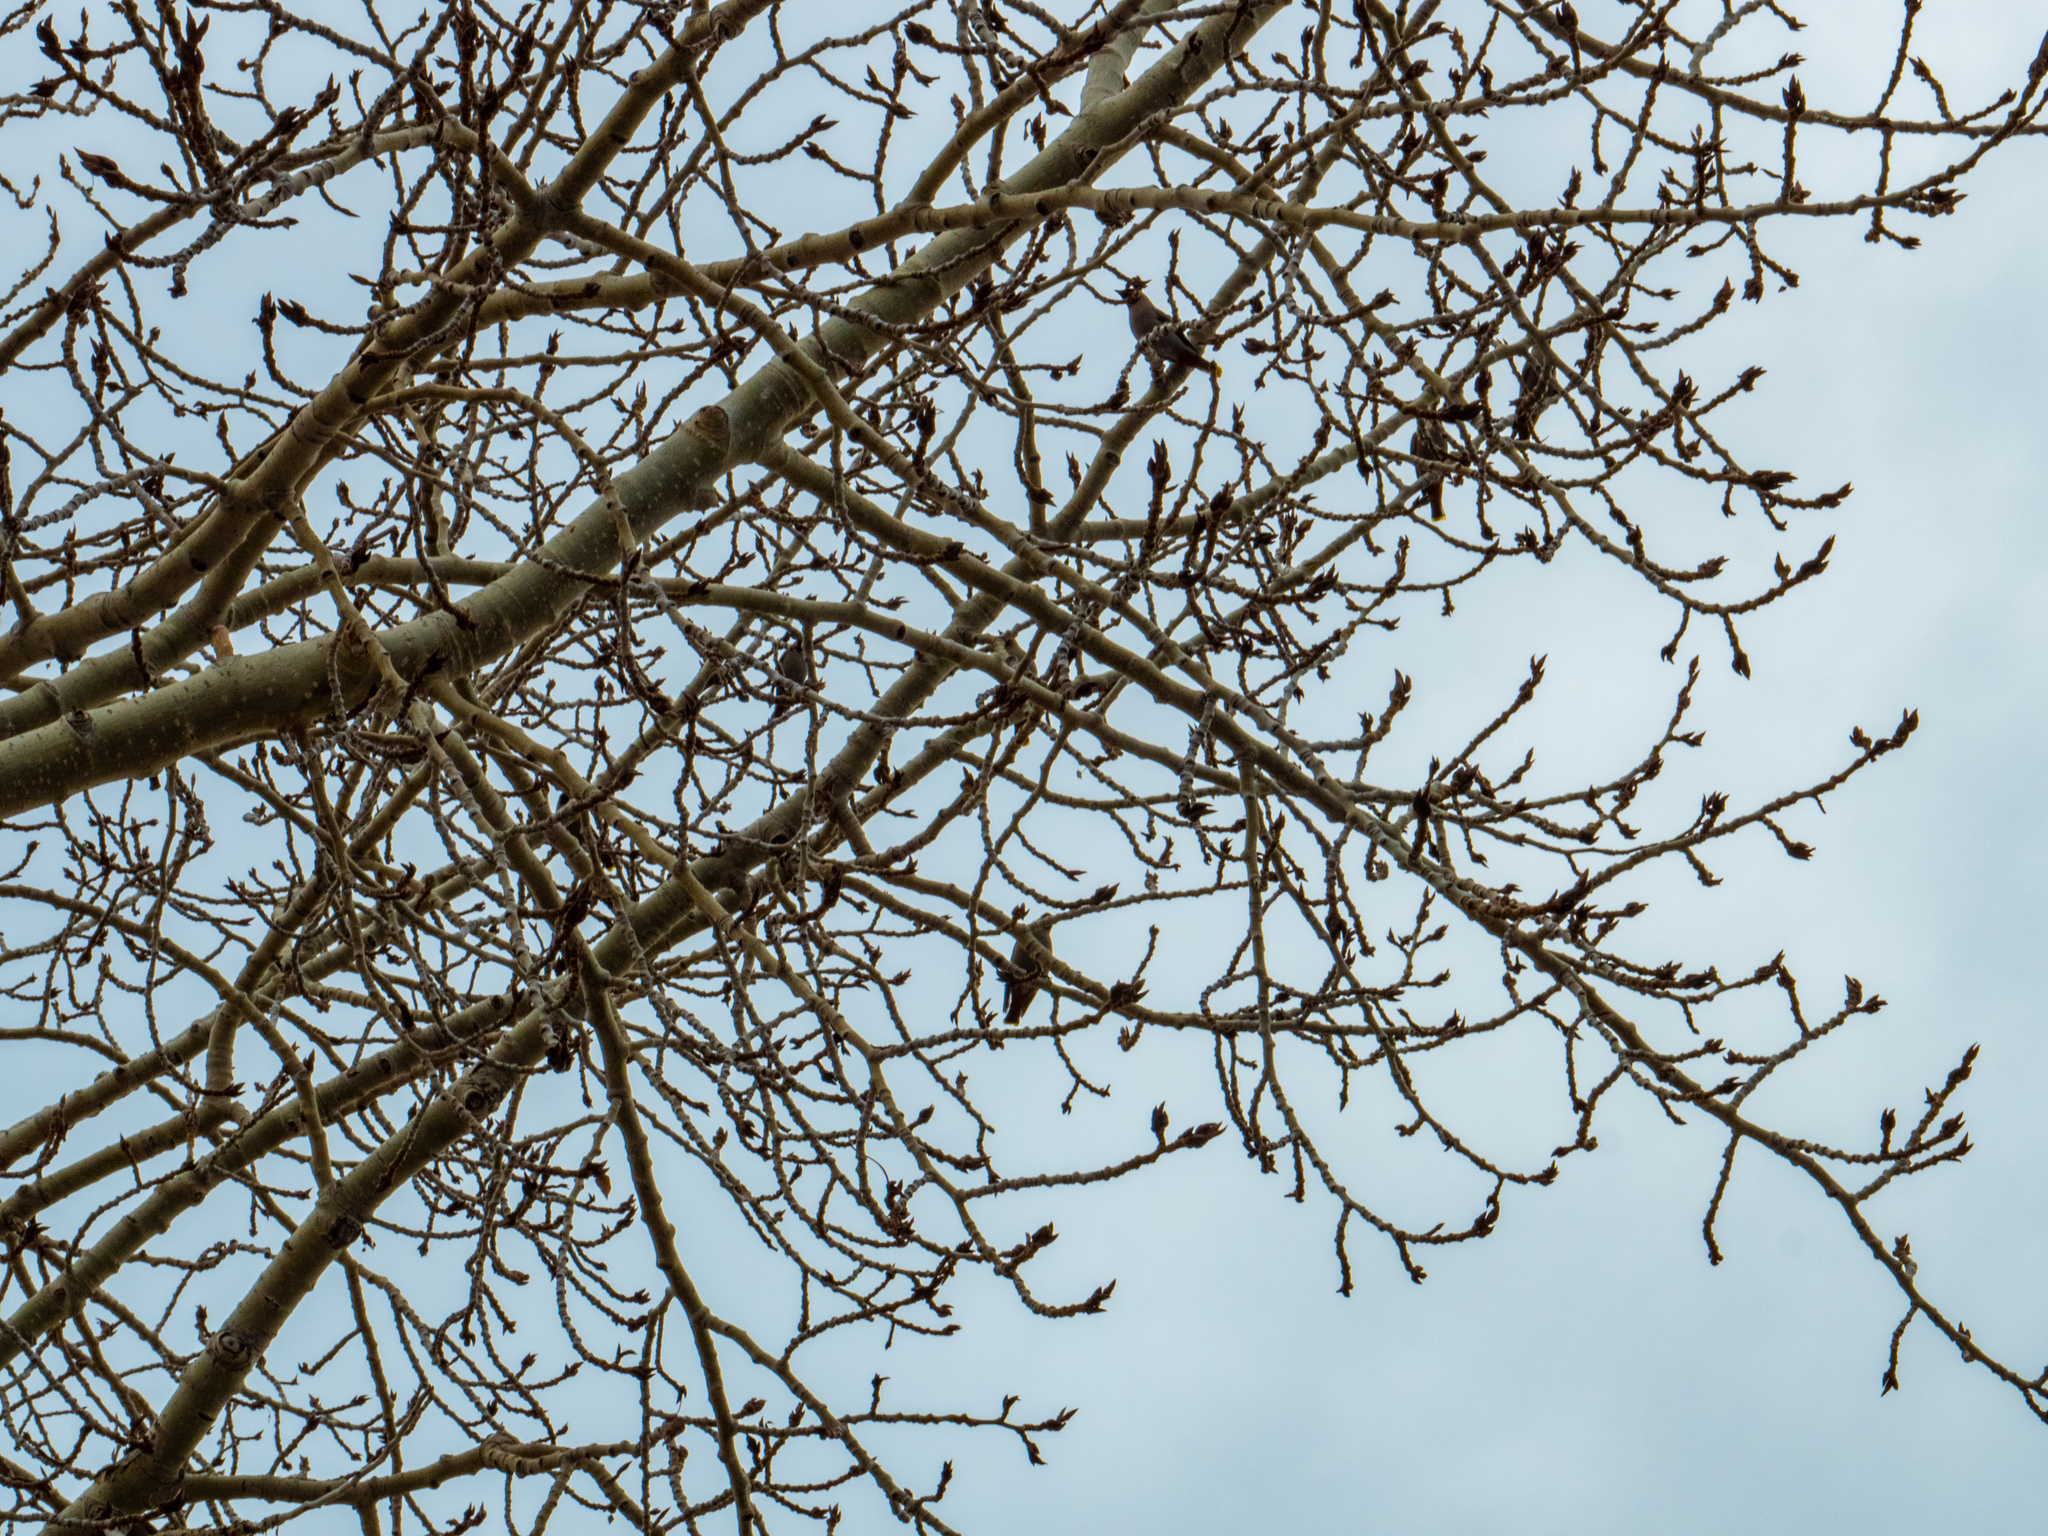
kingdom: Animalia
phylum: Chordata
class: Aves
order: Passeriformes
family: Bombycillidae
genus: Bombycilla
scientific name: Bombycilla garrulus
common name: Bohemian waxwing
